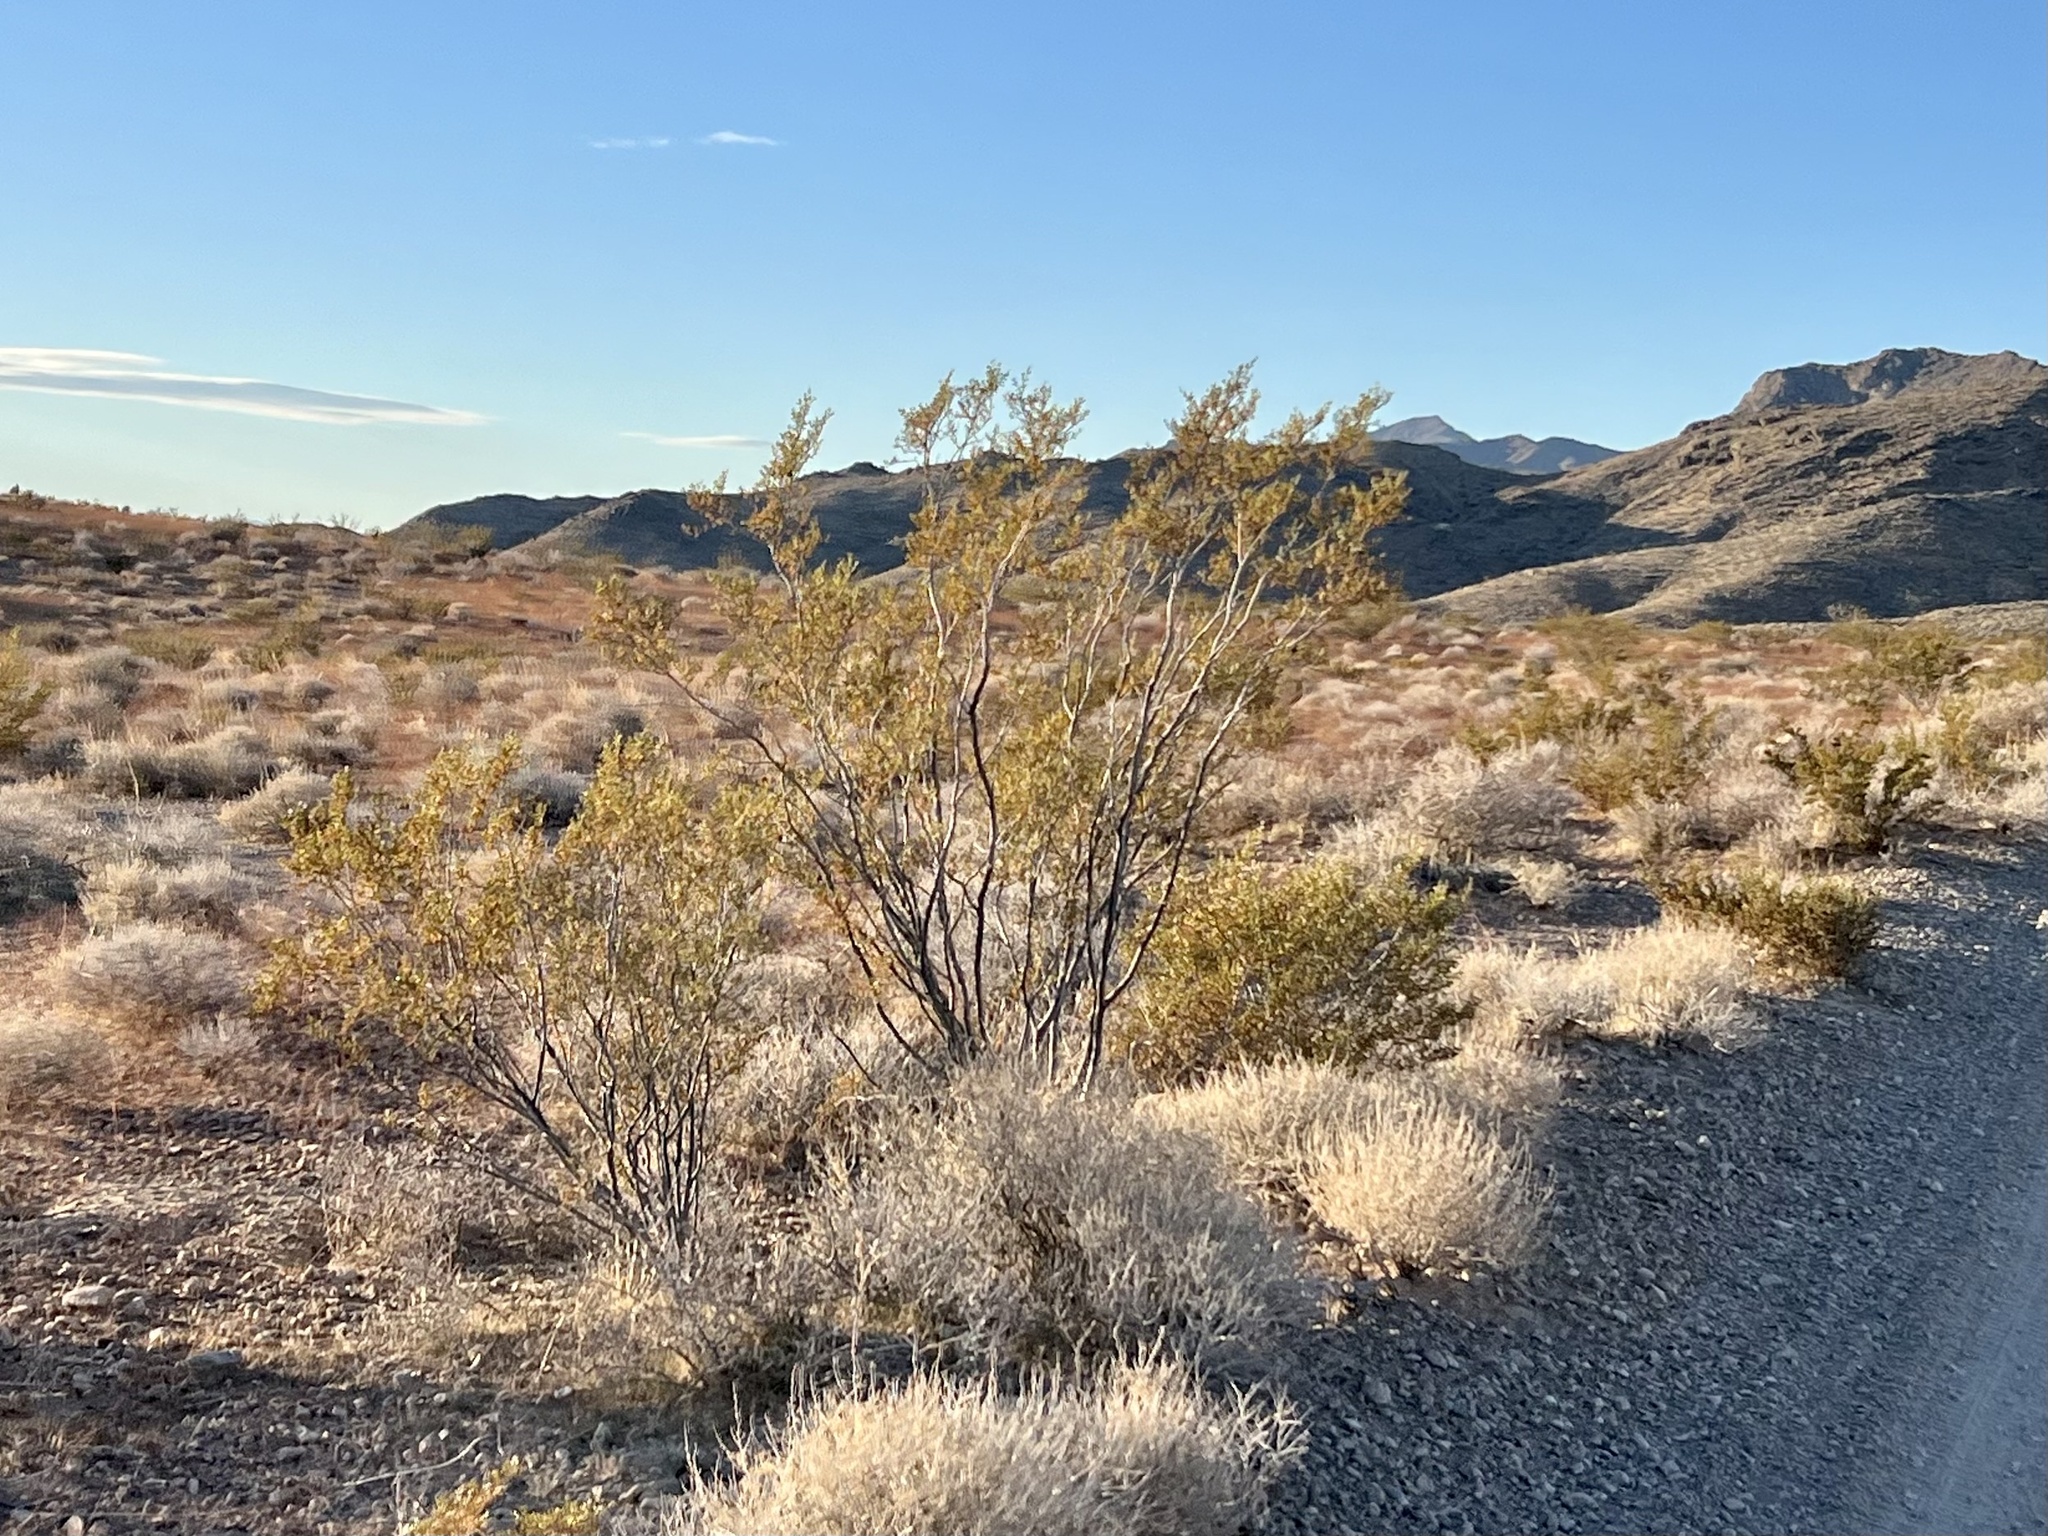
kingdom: Plantae
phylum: Tracheophyta
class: Magnoliopsida
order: Zygophyllales
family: Zygophyllaceae
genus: Larrea
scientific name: Larrea tridentata
